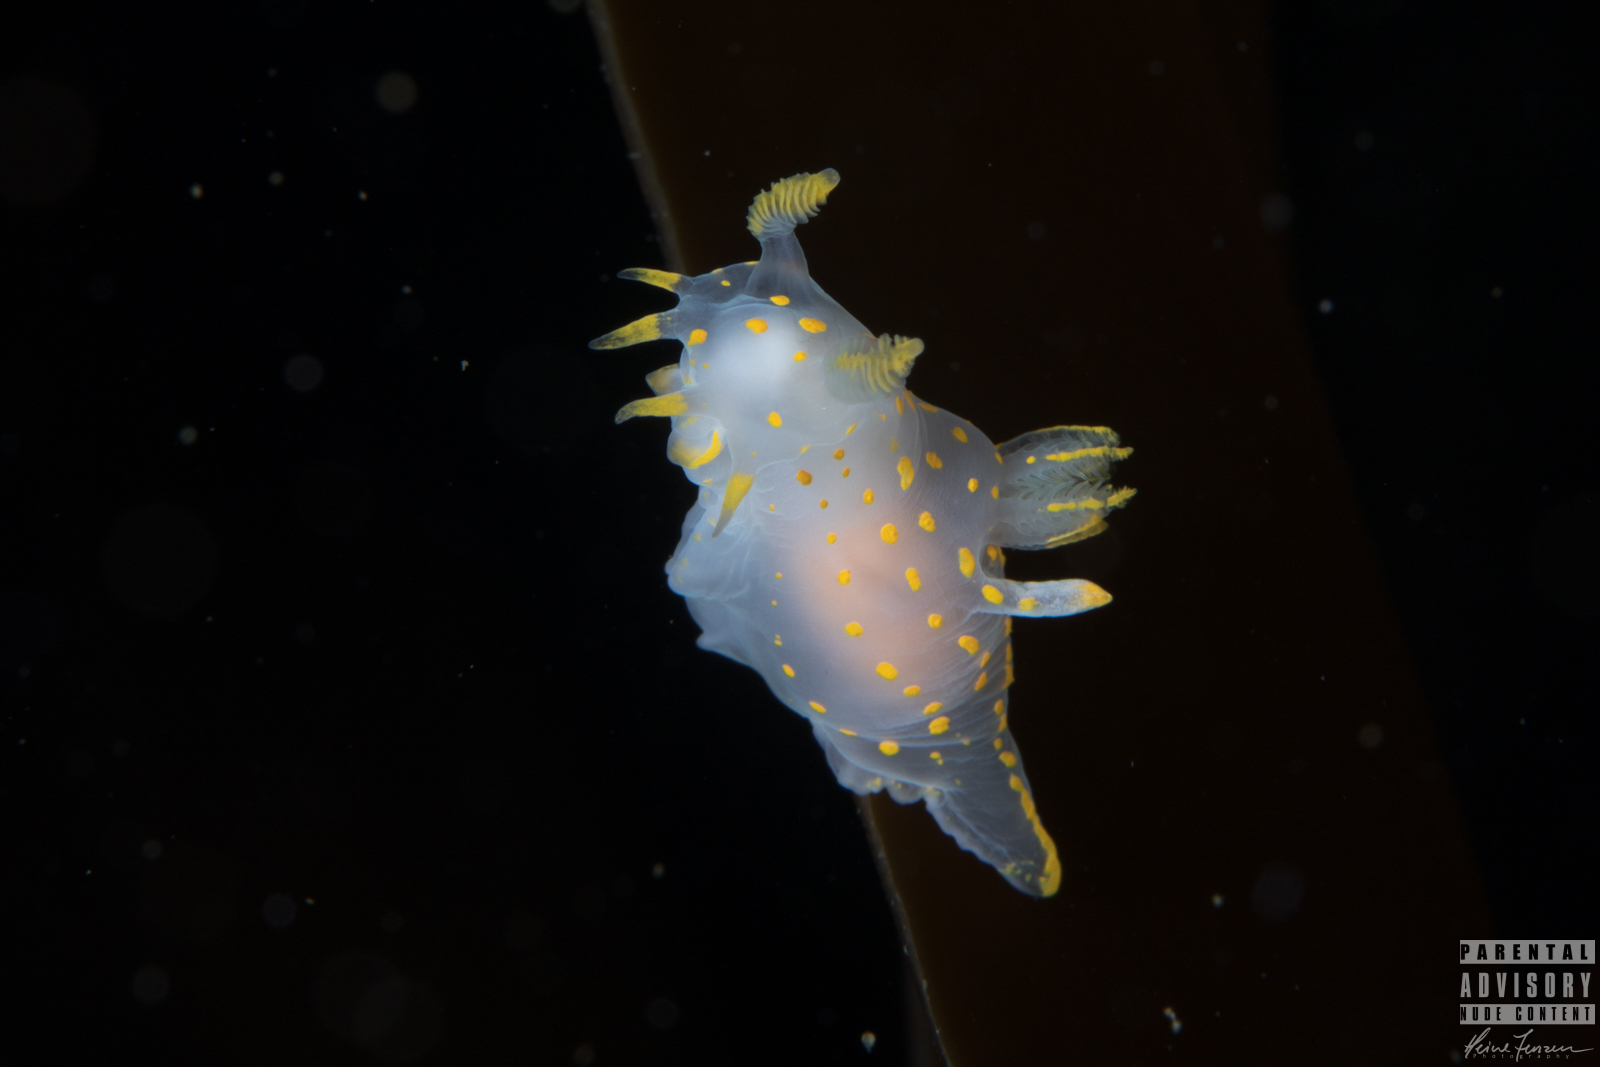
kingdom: Animalia
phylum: Mollusca
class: Gastropoda
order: Nudibranchia
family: Polyceridae
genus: Polycera
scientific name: Polycera quadrilineata
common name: Four-striped polycera
